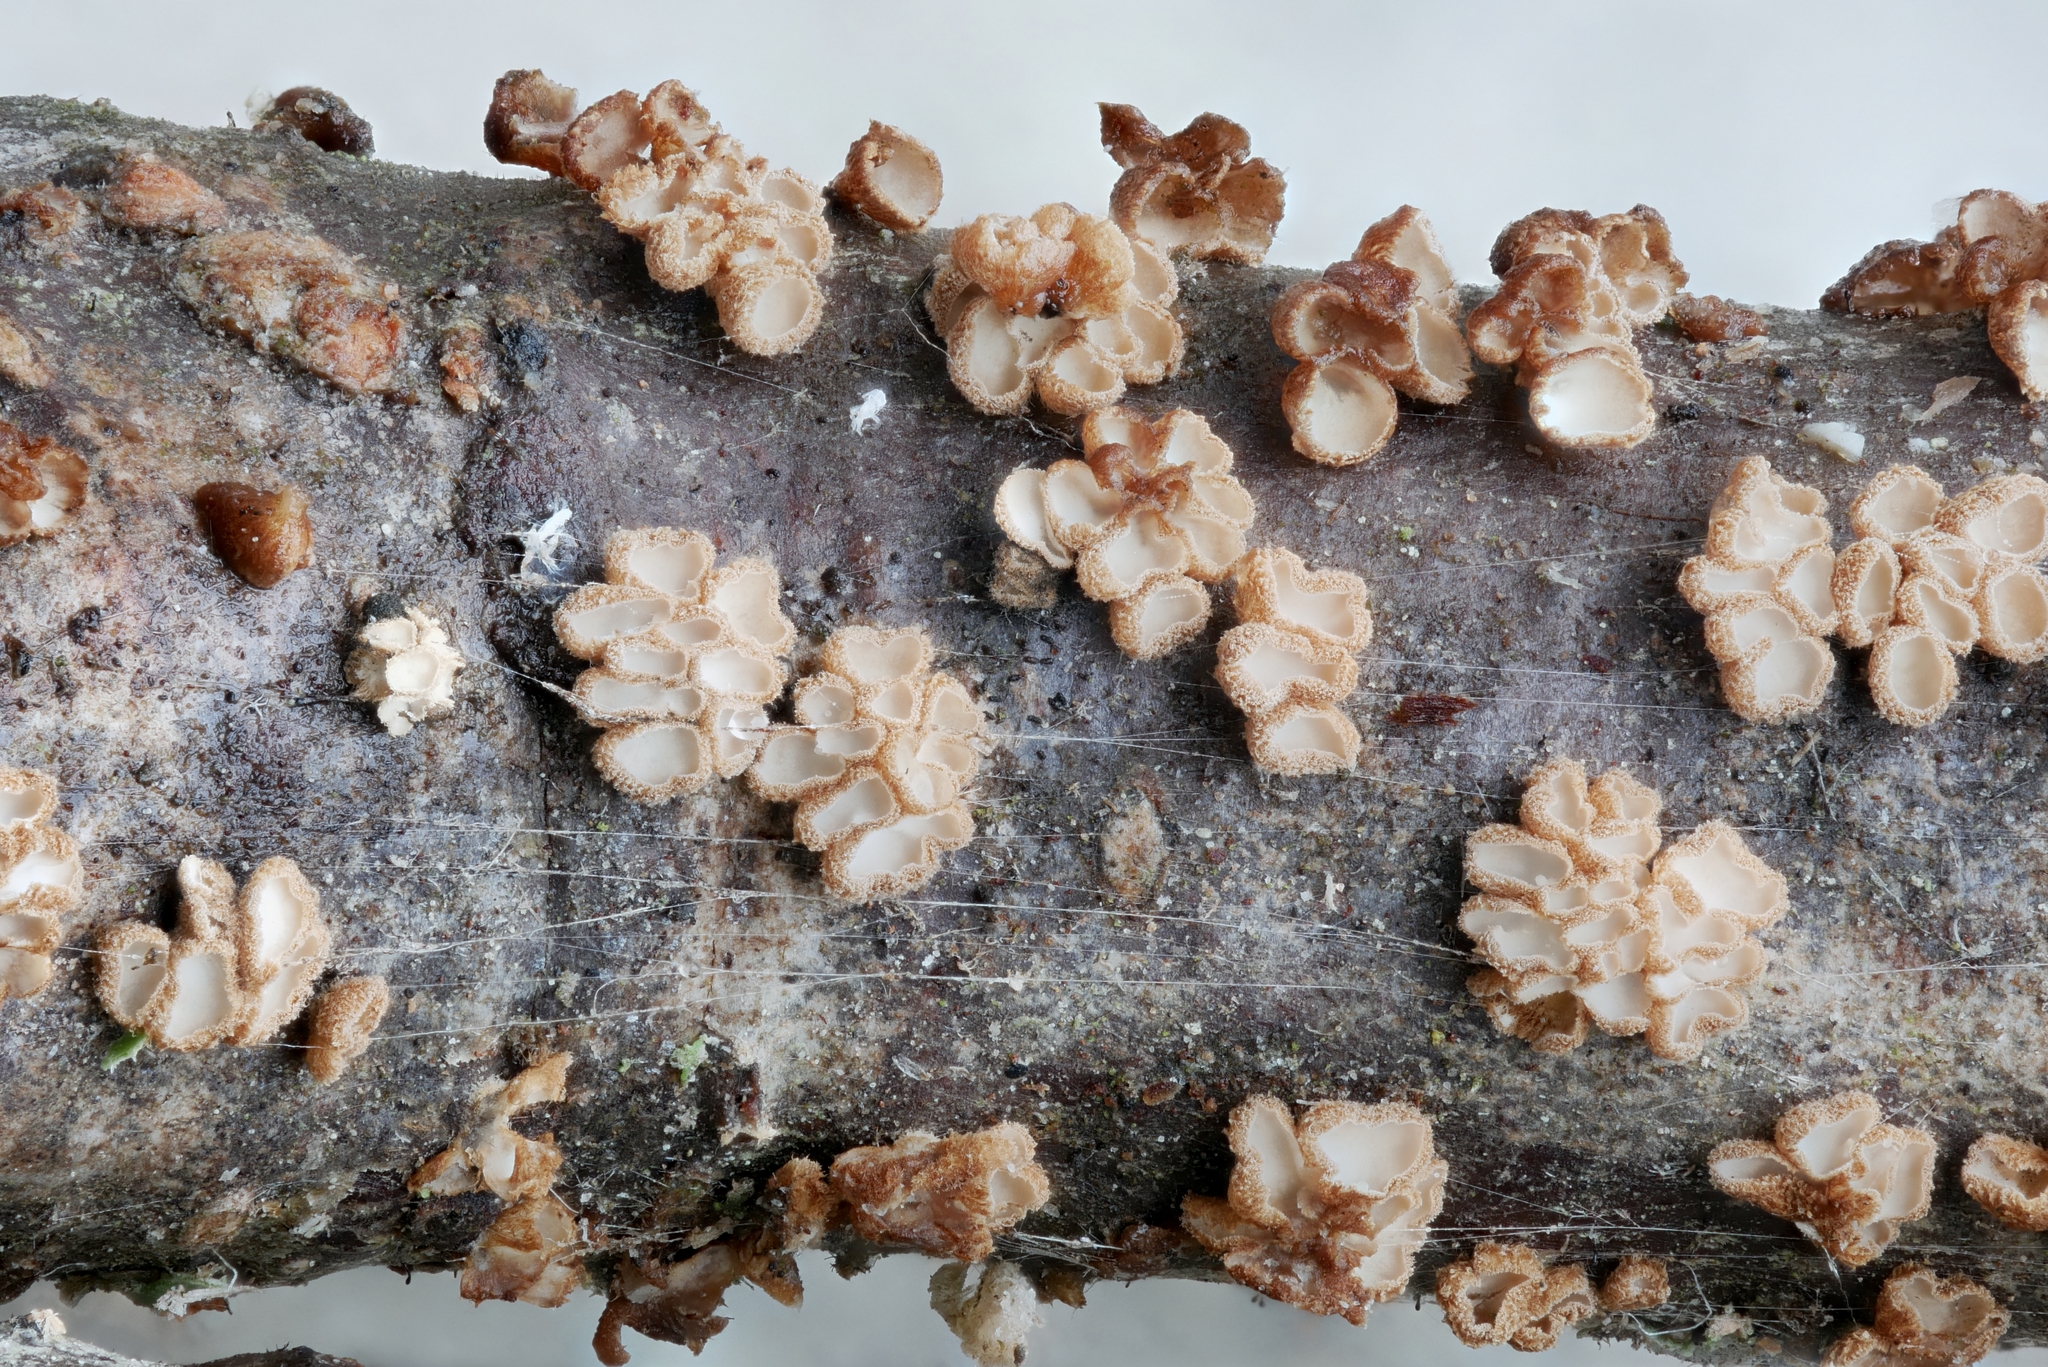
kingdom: Fungi
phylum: Basidiomycota
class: Agaricomycetes
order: Agaricales
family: Niaceae
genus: Merismodes
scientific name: Merismodes fasciculata
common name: Crowded cuplet
